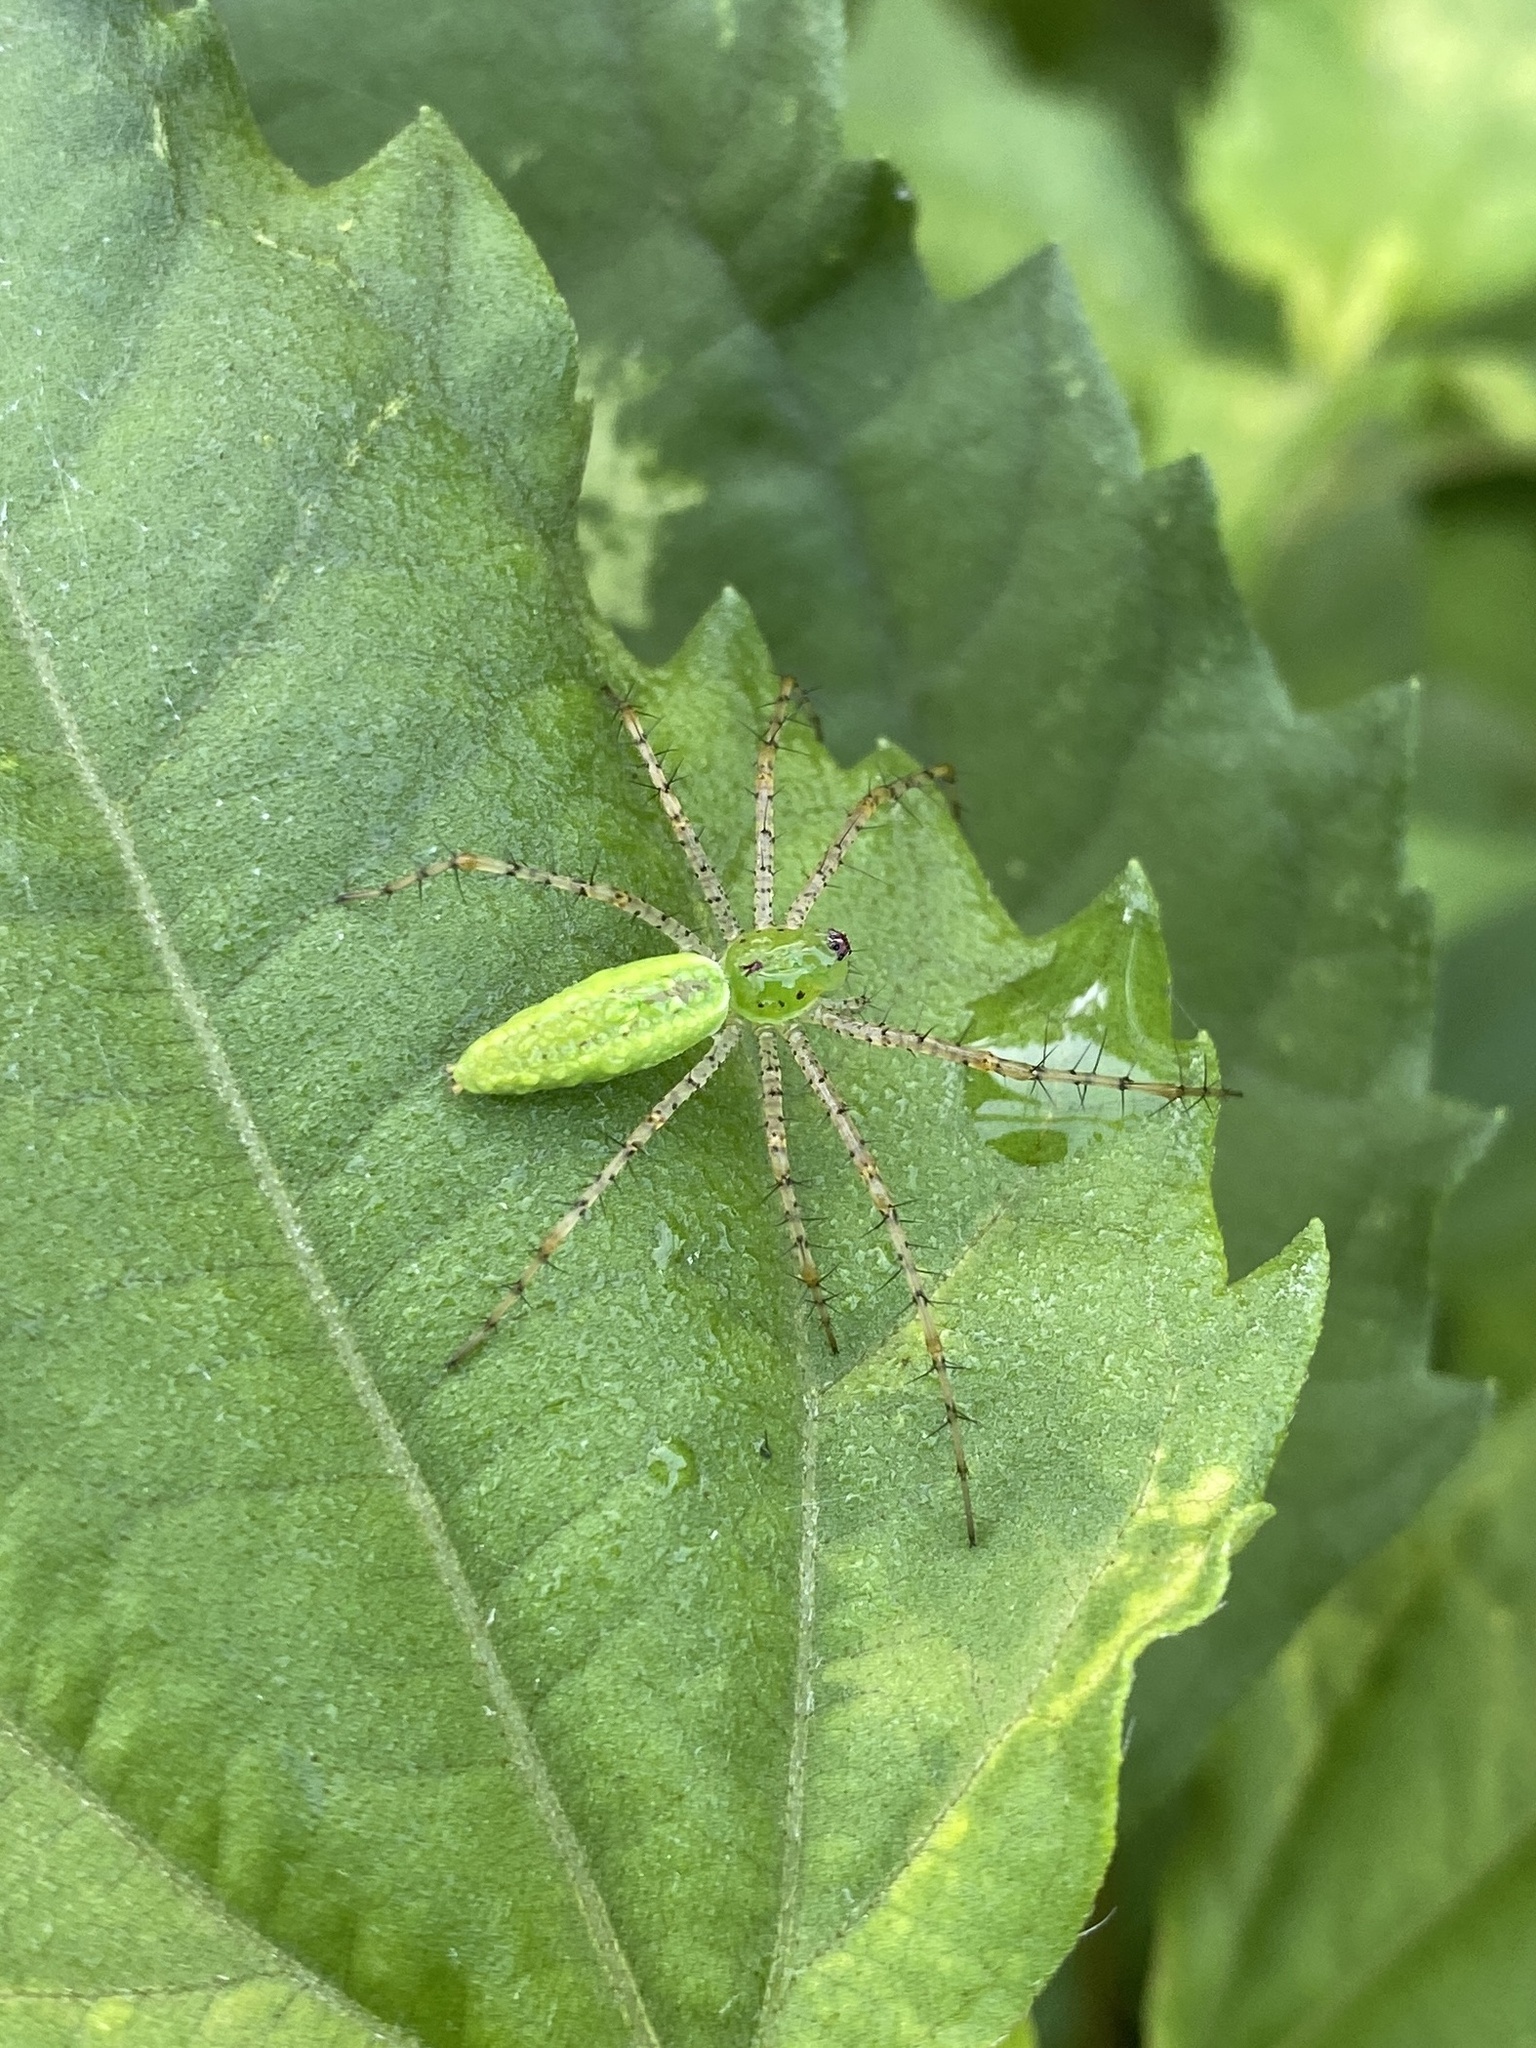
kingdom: Animalia
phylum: Arthropoda
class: Arachnida
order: Araneae
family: Oxyopidae
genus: Peucetia
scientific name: Peucetia viridans
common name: Lynx spiders
